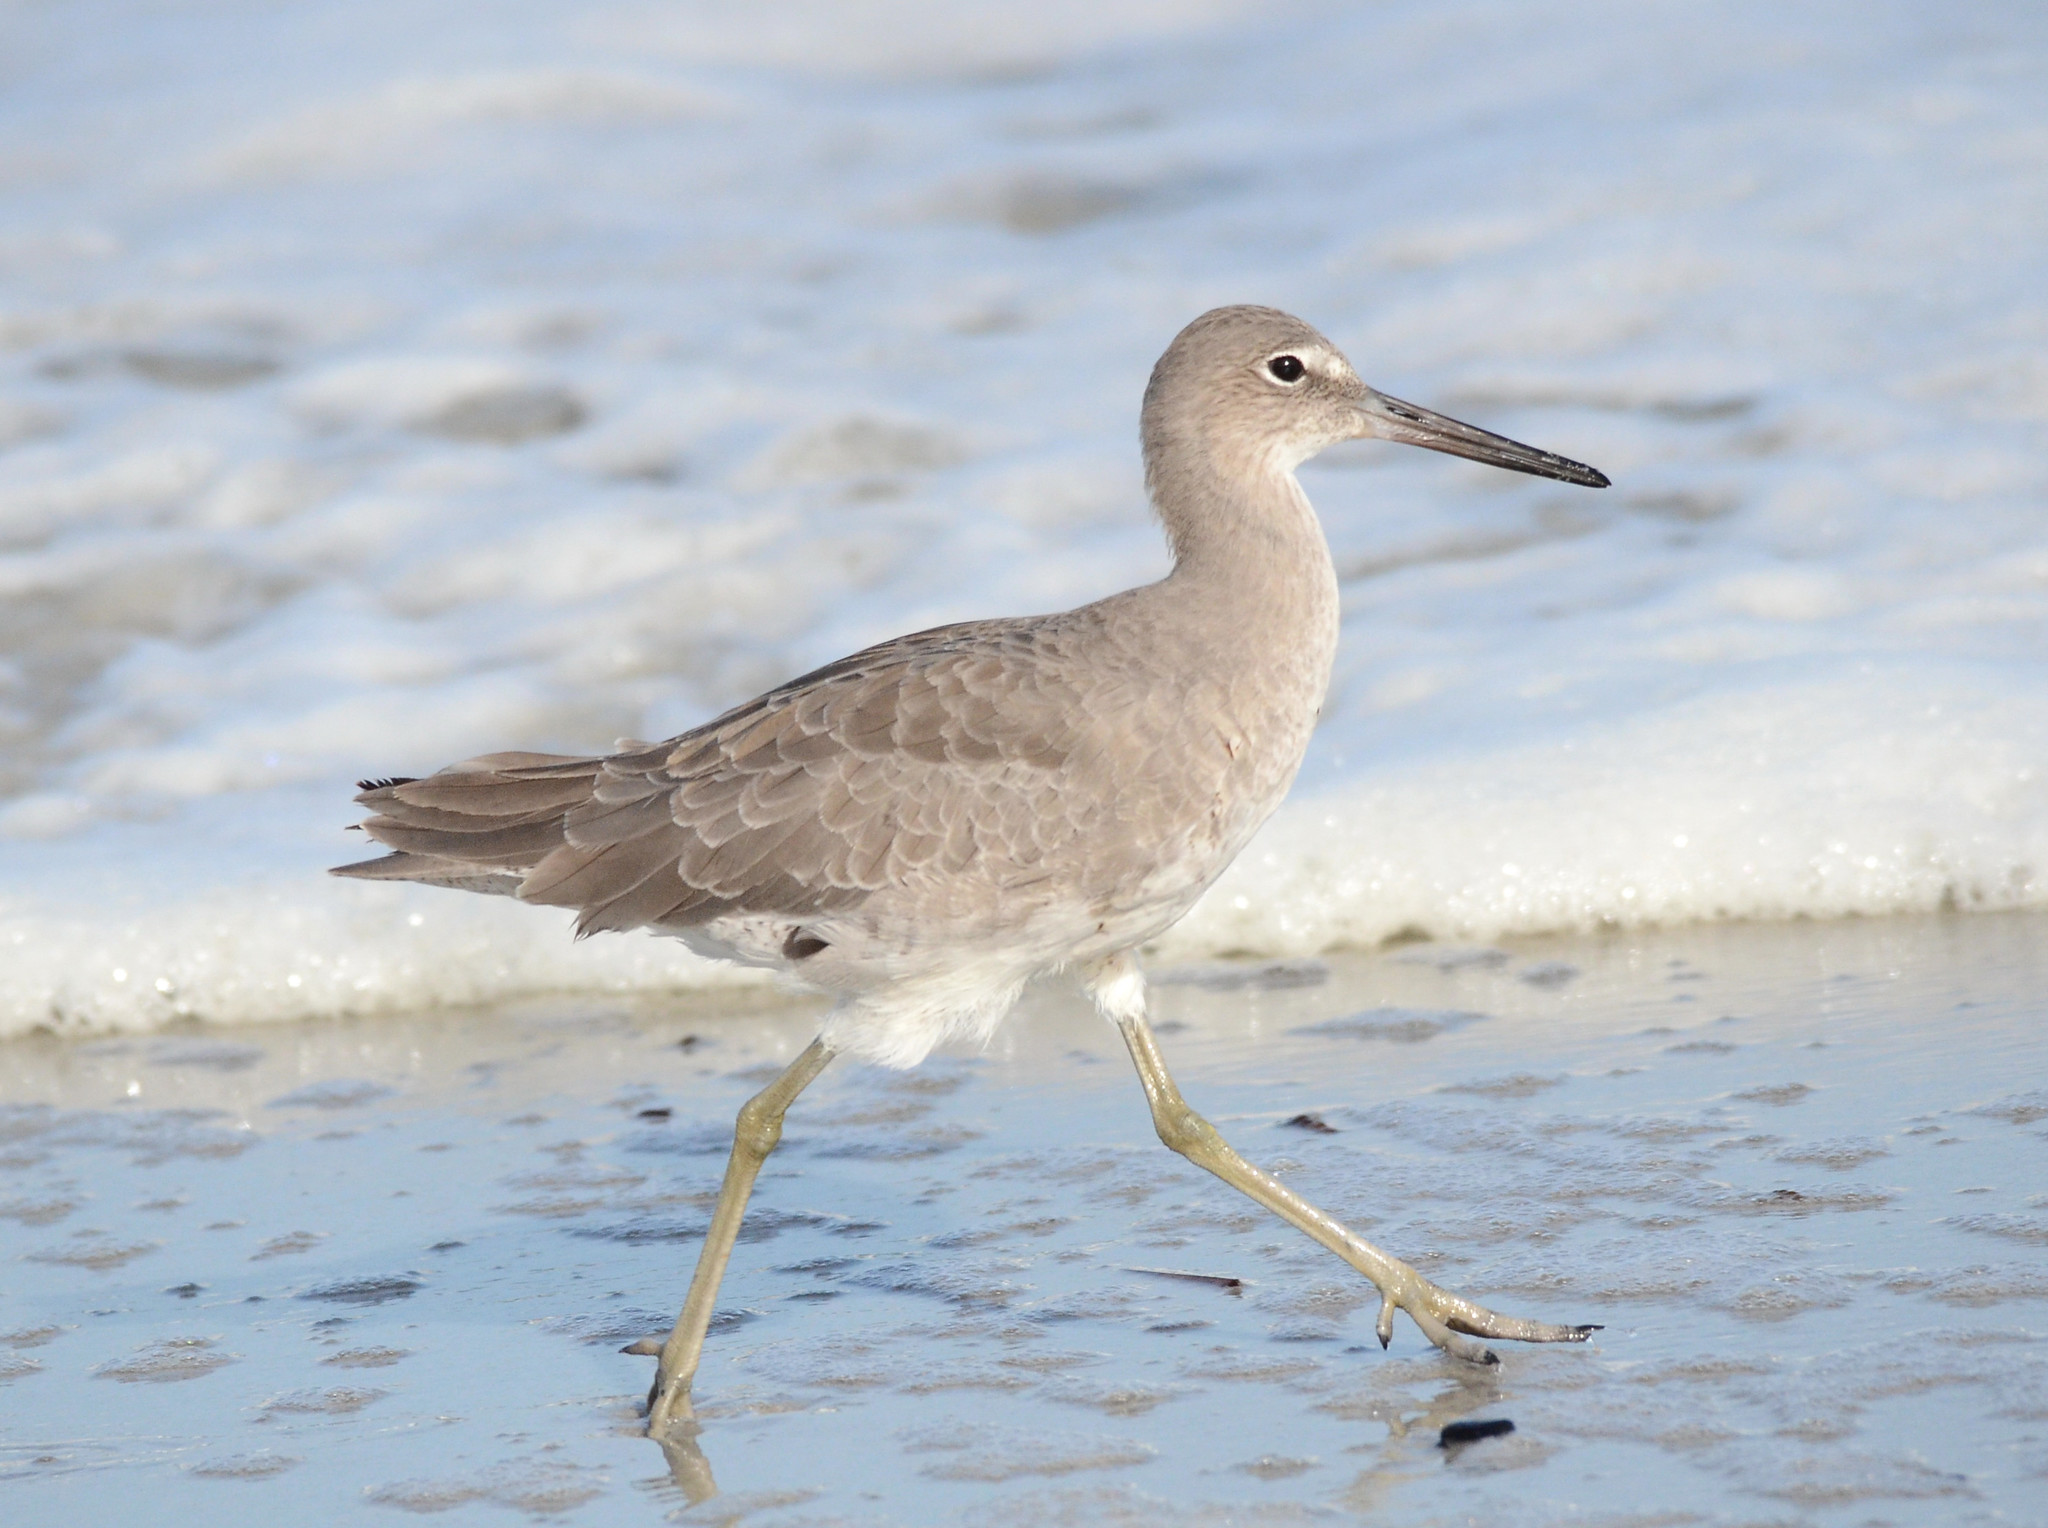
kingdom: Animalia
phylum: Chordata
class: Aves
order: Charadriiformes
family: Scolopacidae
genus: Tringa
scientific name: Tringa semipalmata
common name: Willet
